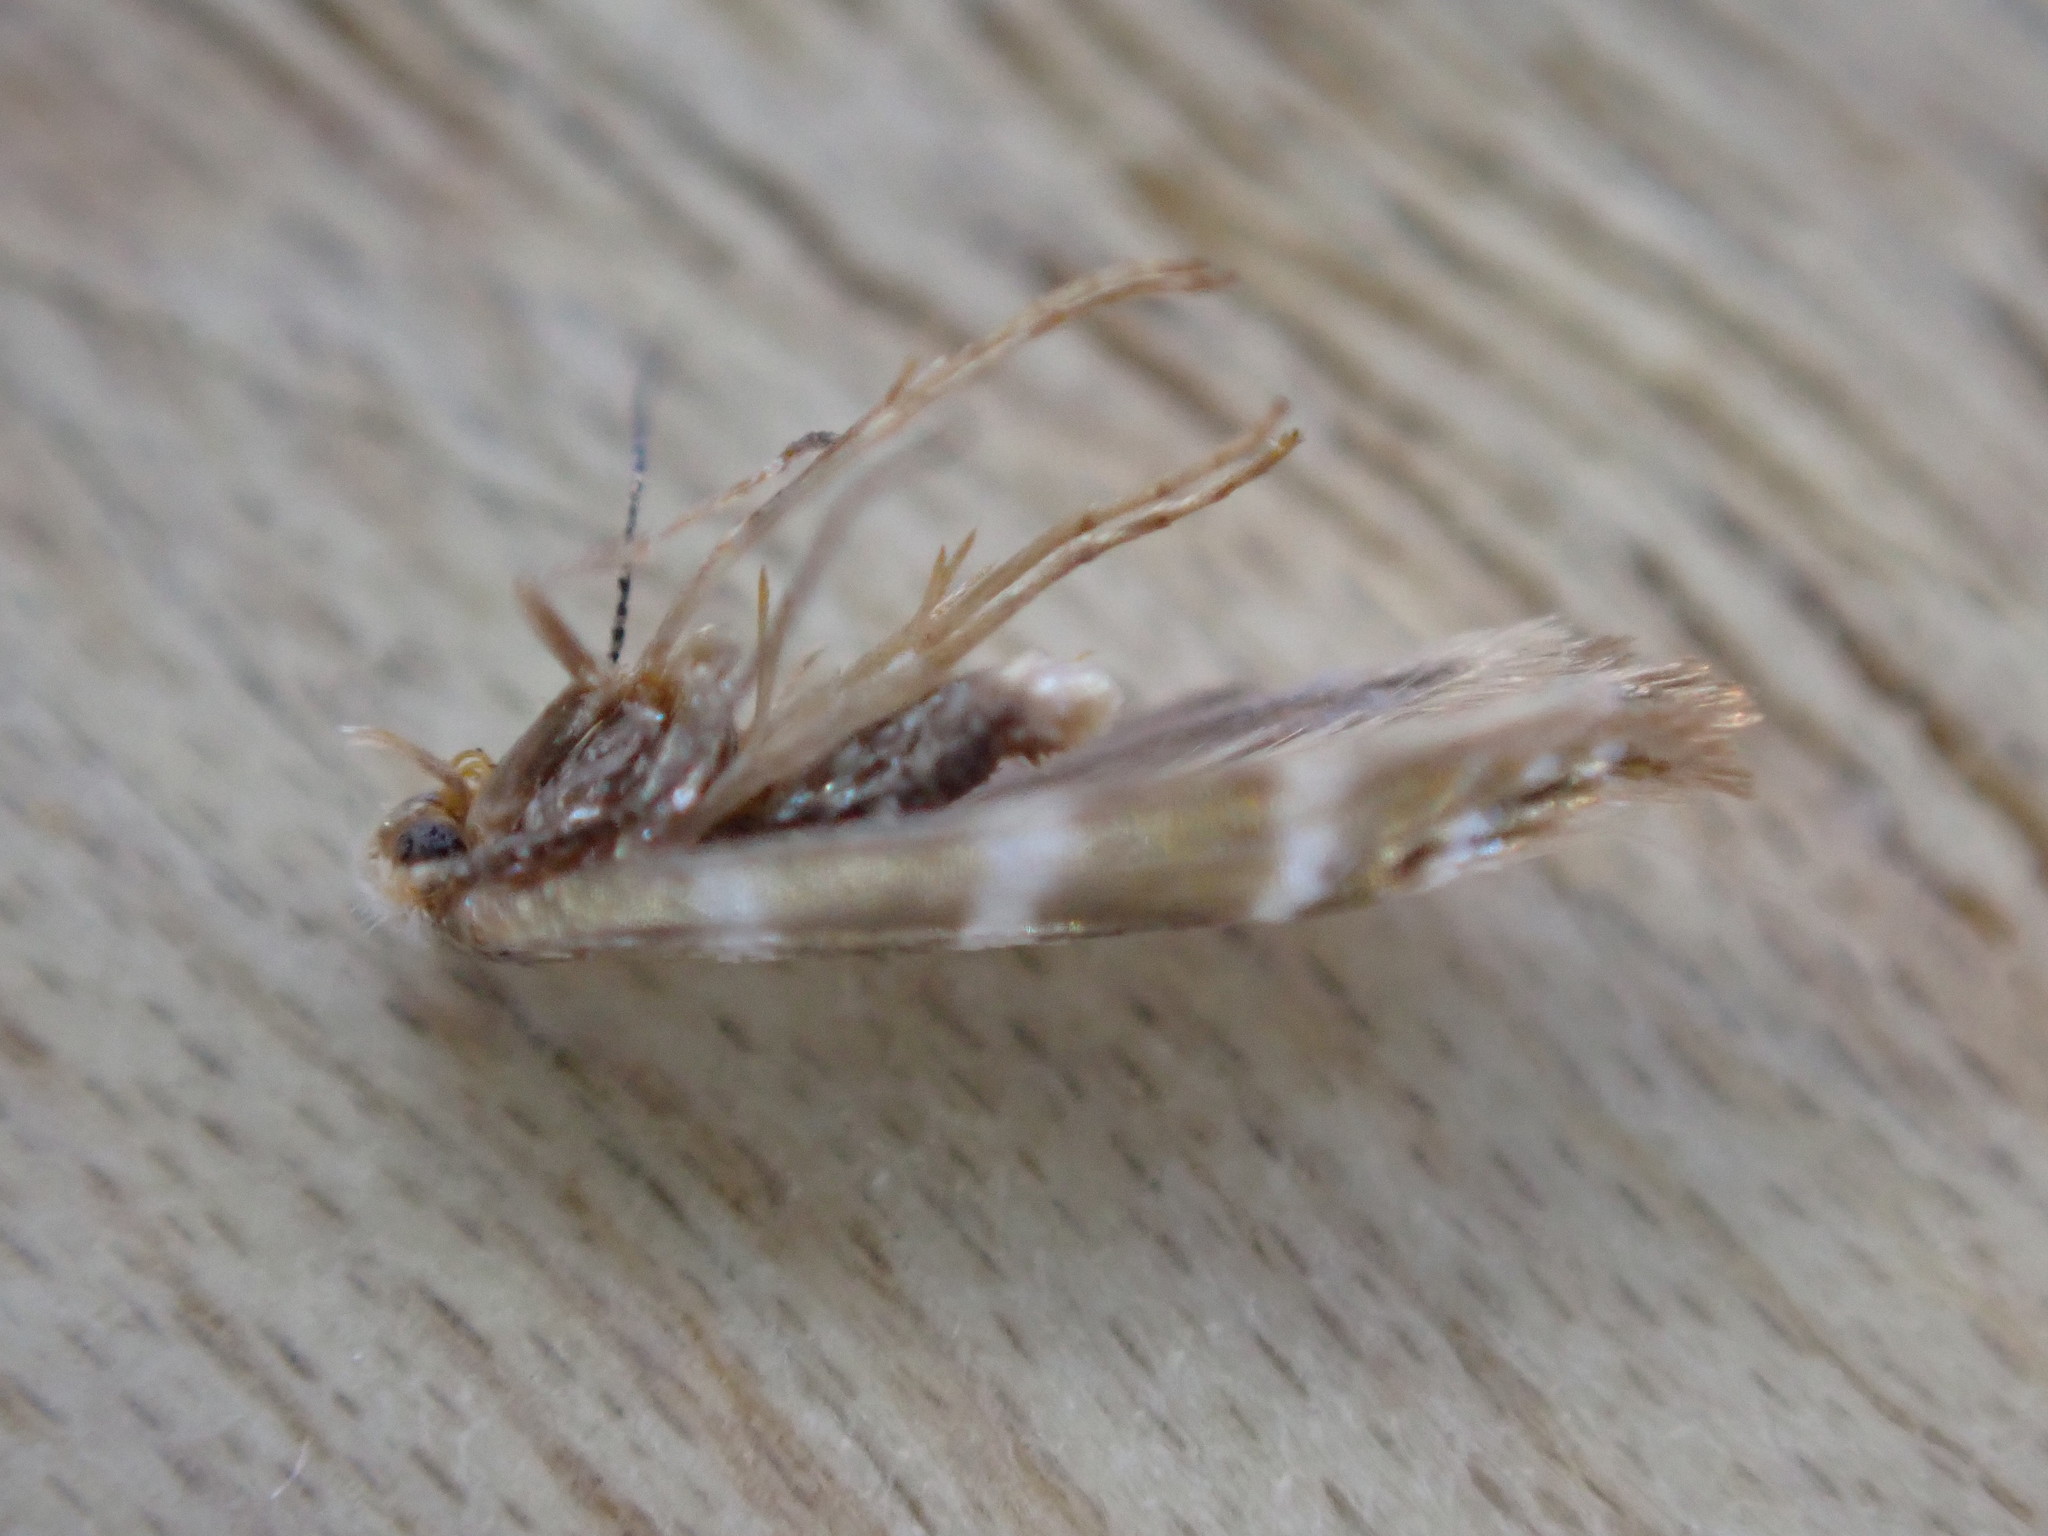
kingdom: Animalia
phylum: Arthropoda
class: Insecta
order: Lepidoptera
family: Argyresthiidae
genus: Argyresthia
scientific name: Argyresthia trifasciata
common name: Triple-barred argent
